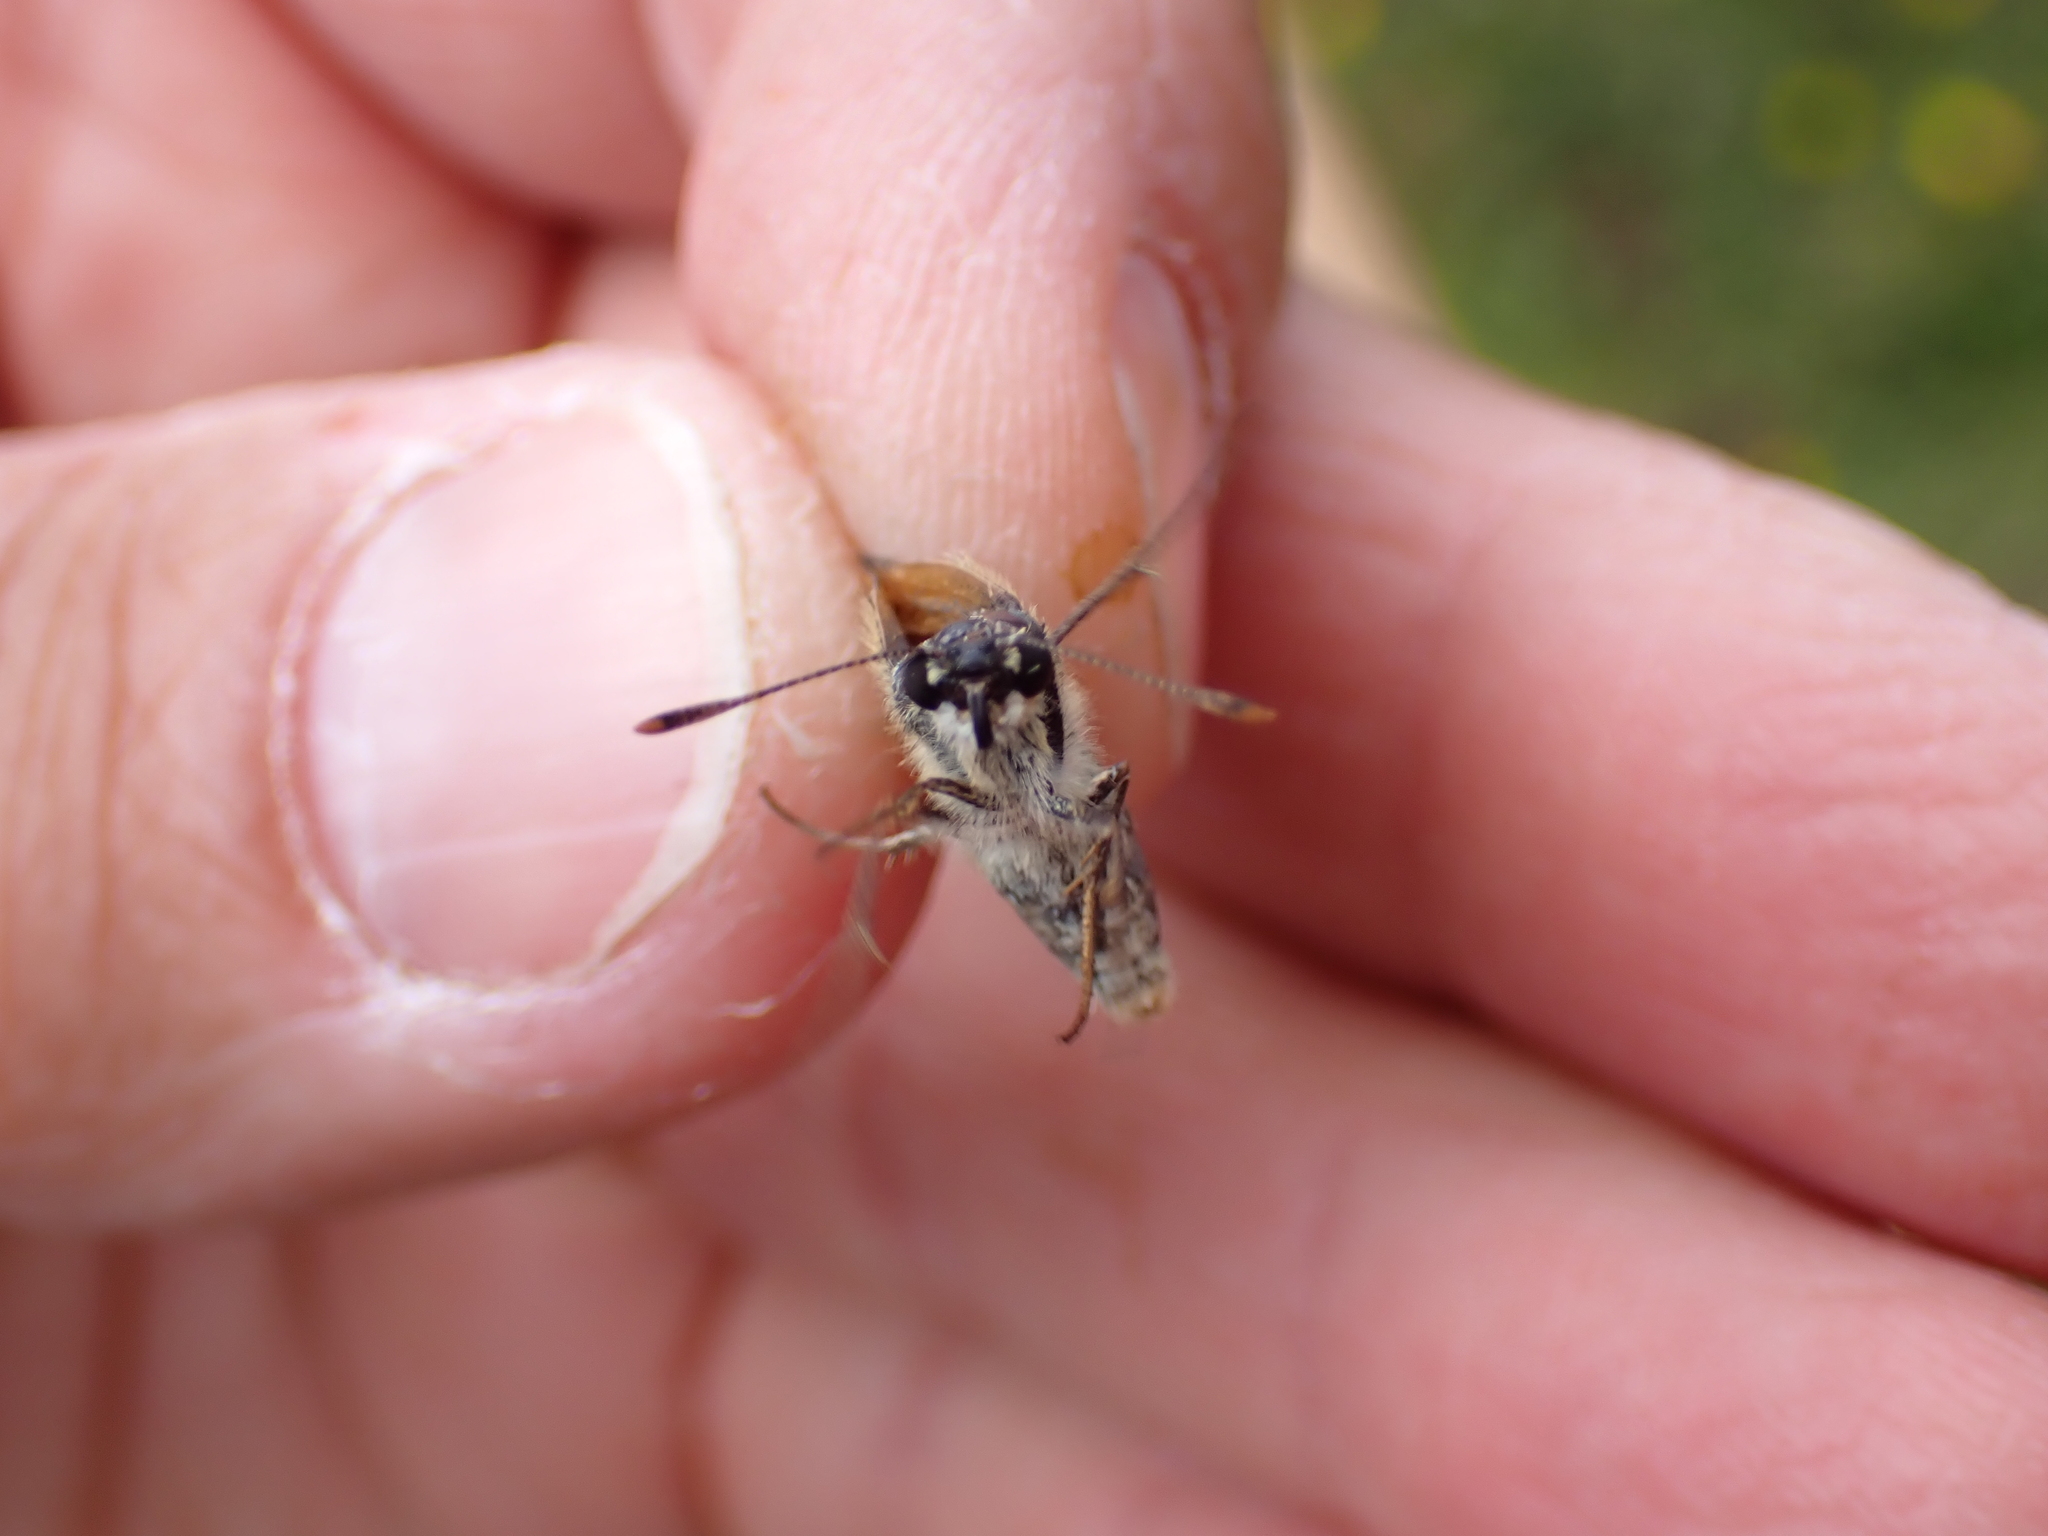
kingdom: Animalia
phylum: Arthropoda
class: Insecta
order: Lepidoptera
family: Hesperiidae
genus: Thymelicus
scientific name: Thymelicus sylvestris
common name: Small skipper
